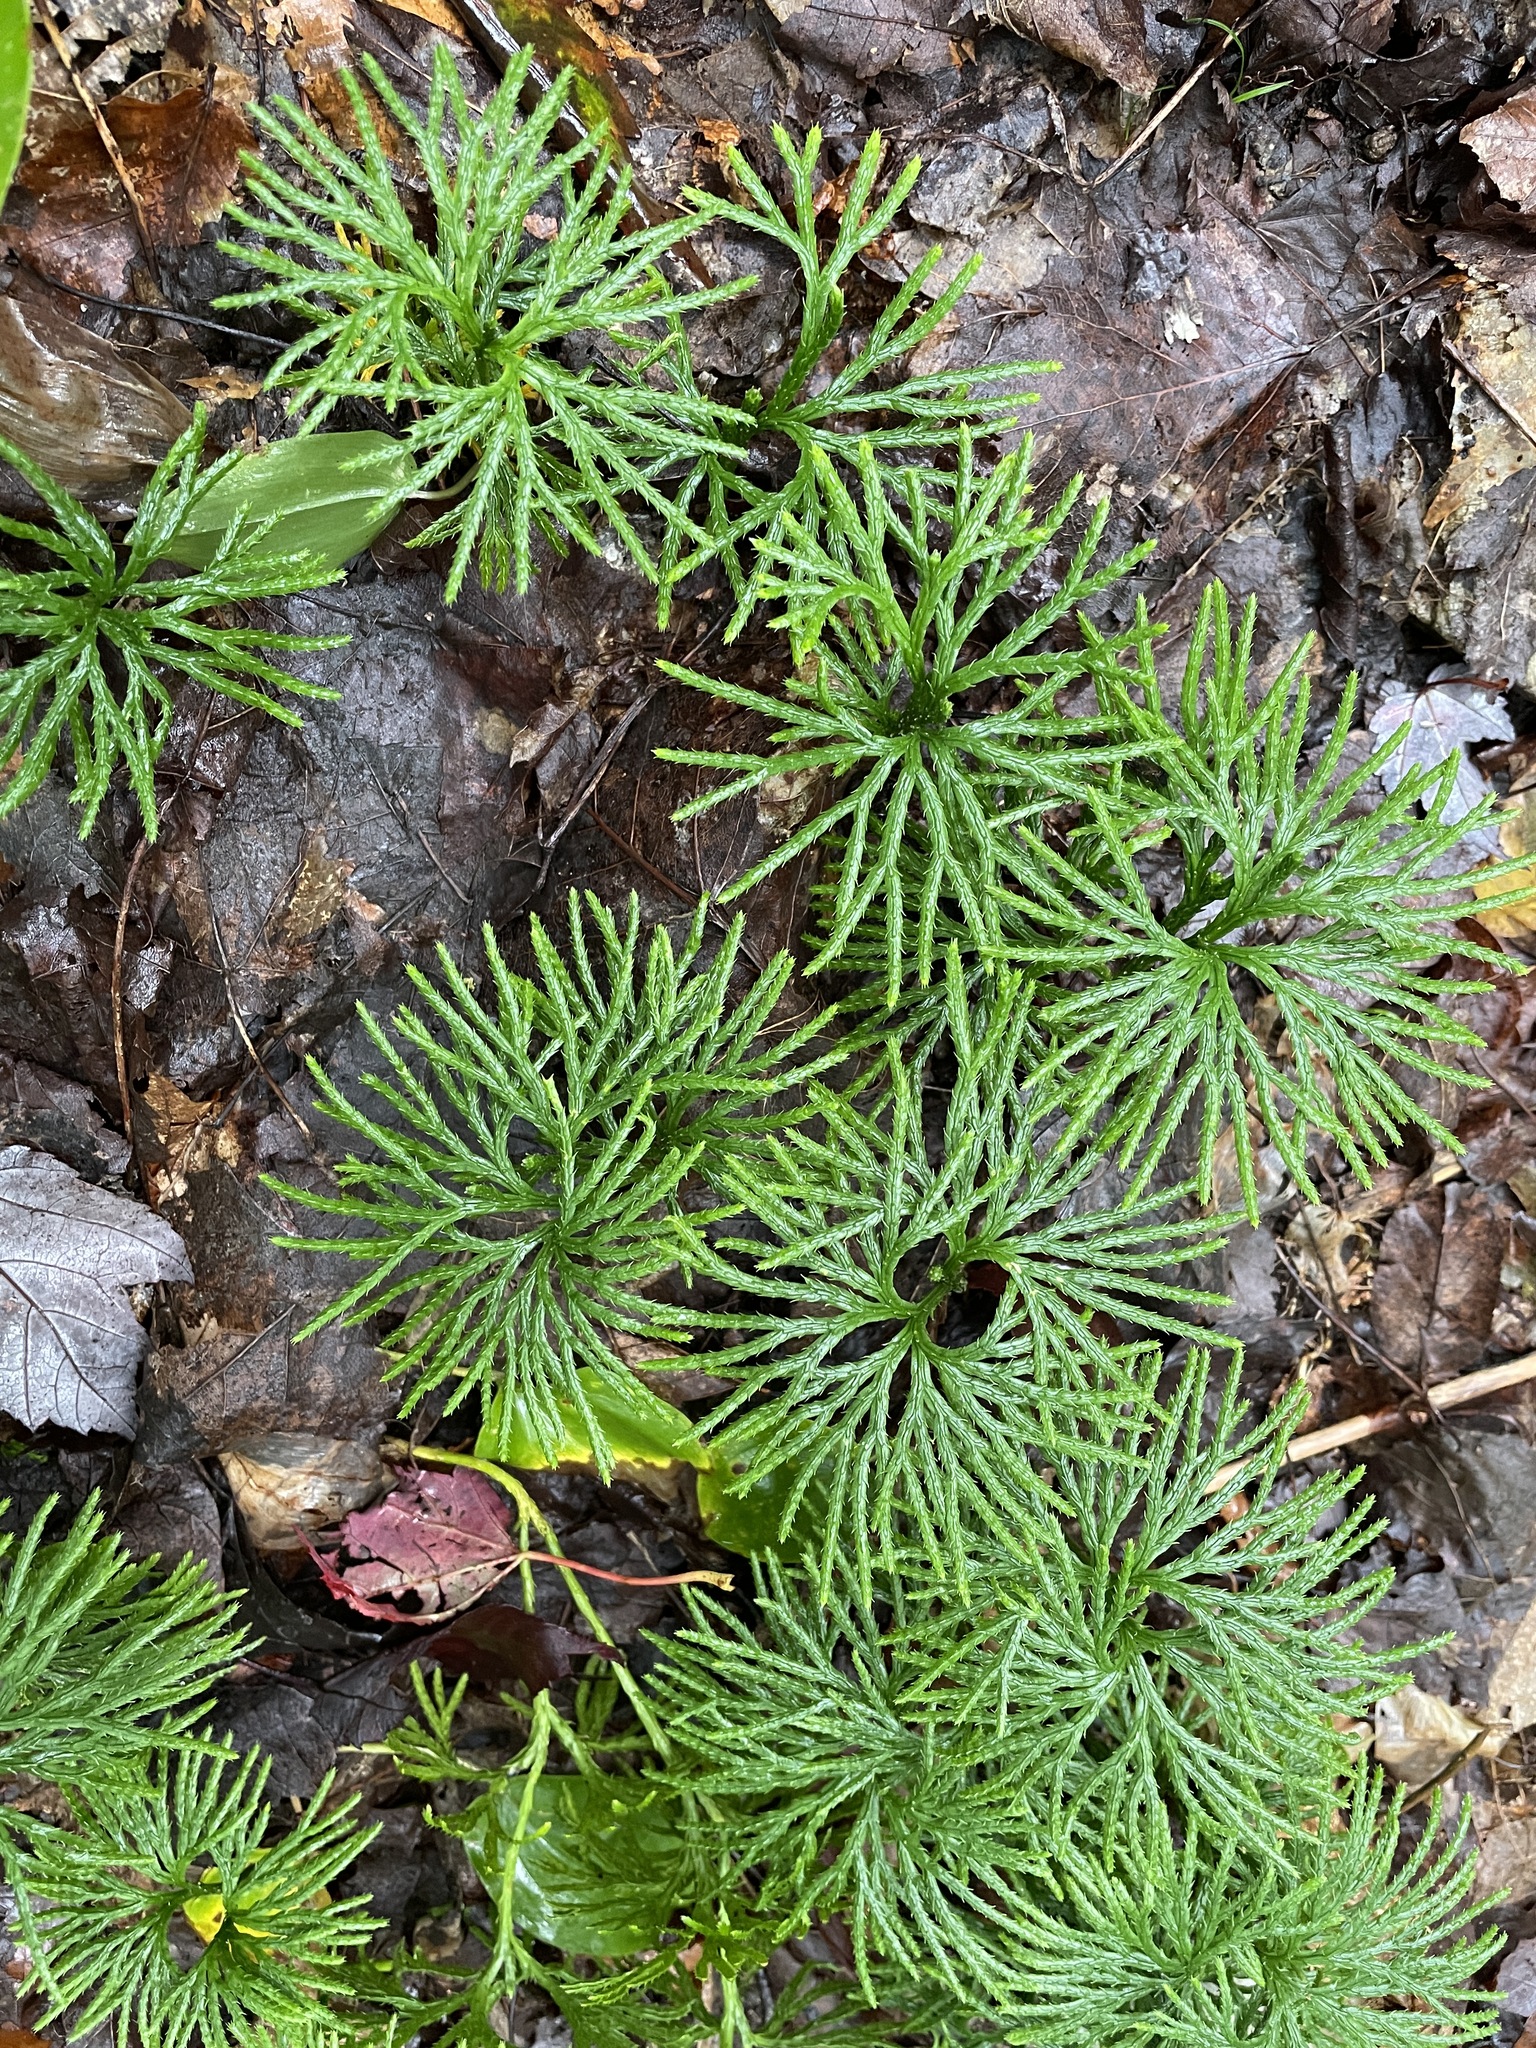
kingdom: Plantae
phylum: Tracheophyta
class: Lycopodiopsida
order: Lycopodiales
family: Lycopodiaceae
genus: Diphasiastrum
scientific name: Diphasiastrum digitatum
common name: Southern running-pine
